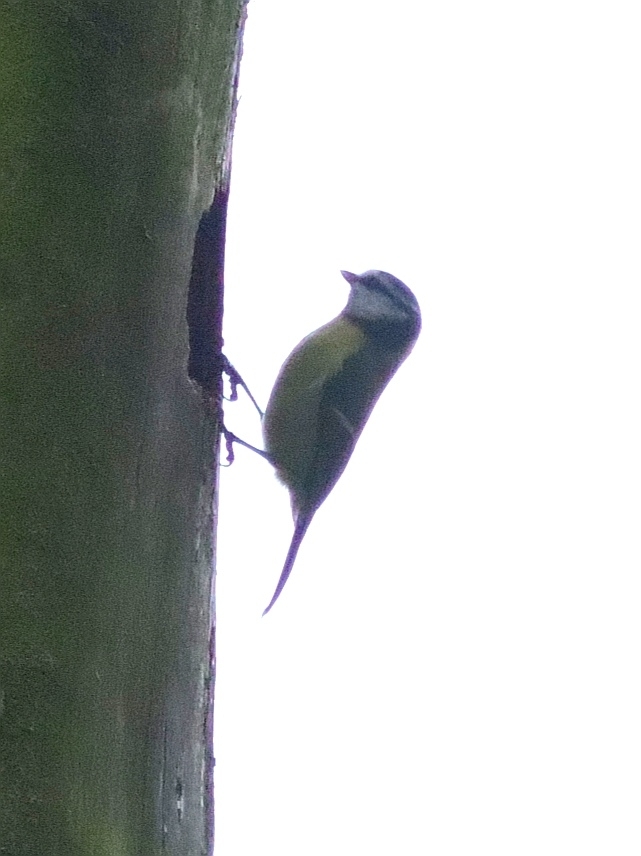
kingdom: Animalia
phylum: Chordata
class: Aves
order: Passeriformes
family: Paridae
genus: Cyanistes
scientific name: Cyanistes caeruleus
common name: Eurasian blue tit
